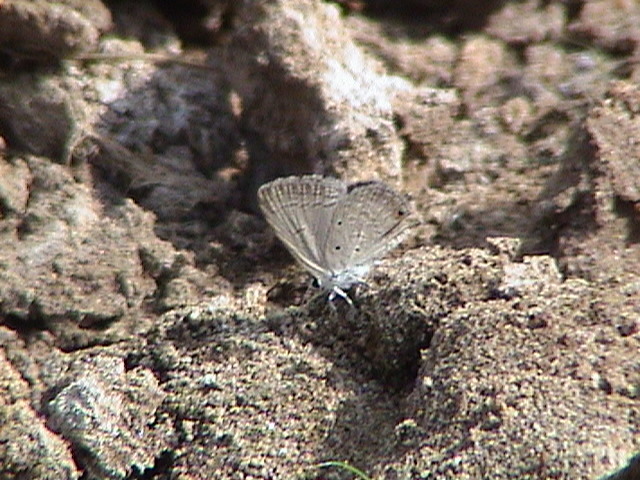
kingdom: Animalia
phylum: Arthropoda
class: Insecta
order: Lepidoptera
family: Lycaenidae
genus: Euchrysops
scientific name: Euchrysops cnejus
